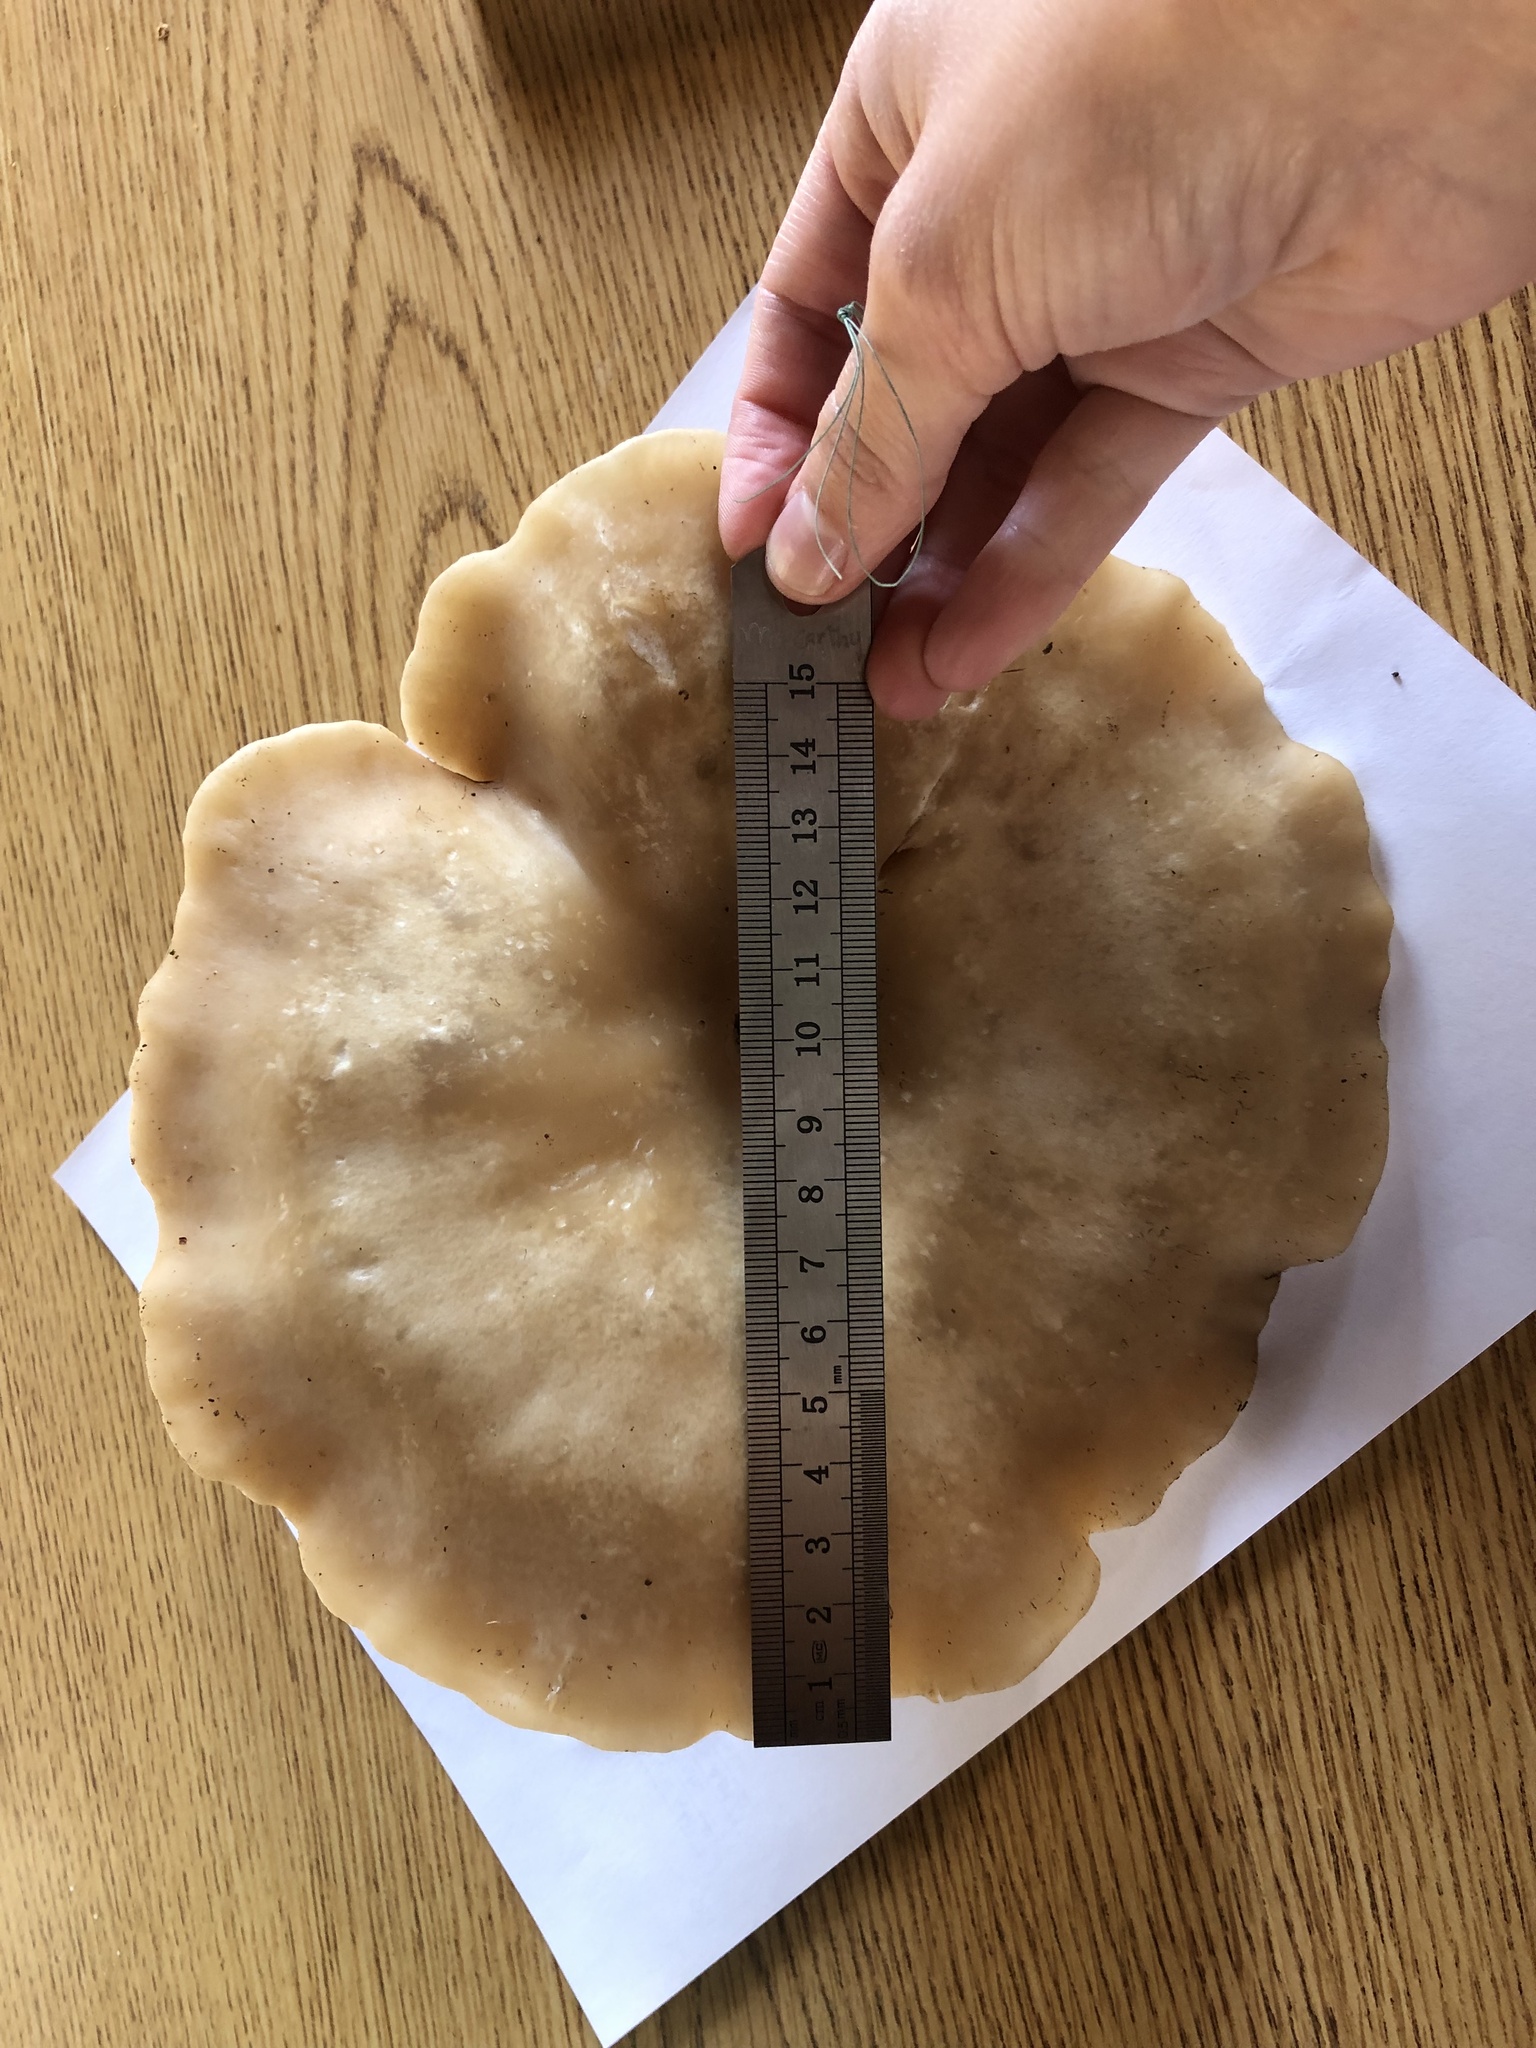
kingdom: Fungi
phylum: Basidiomycota
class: Agaricomycetes
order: Agaricales
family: Tricholomataceae
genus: Collybia
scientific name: Collybia
